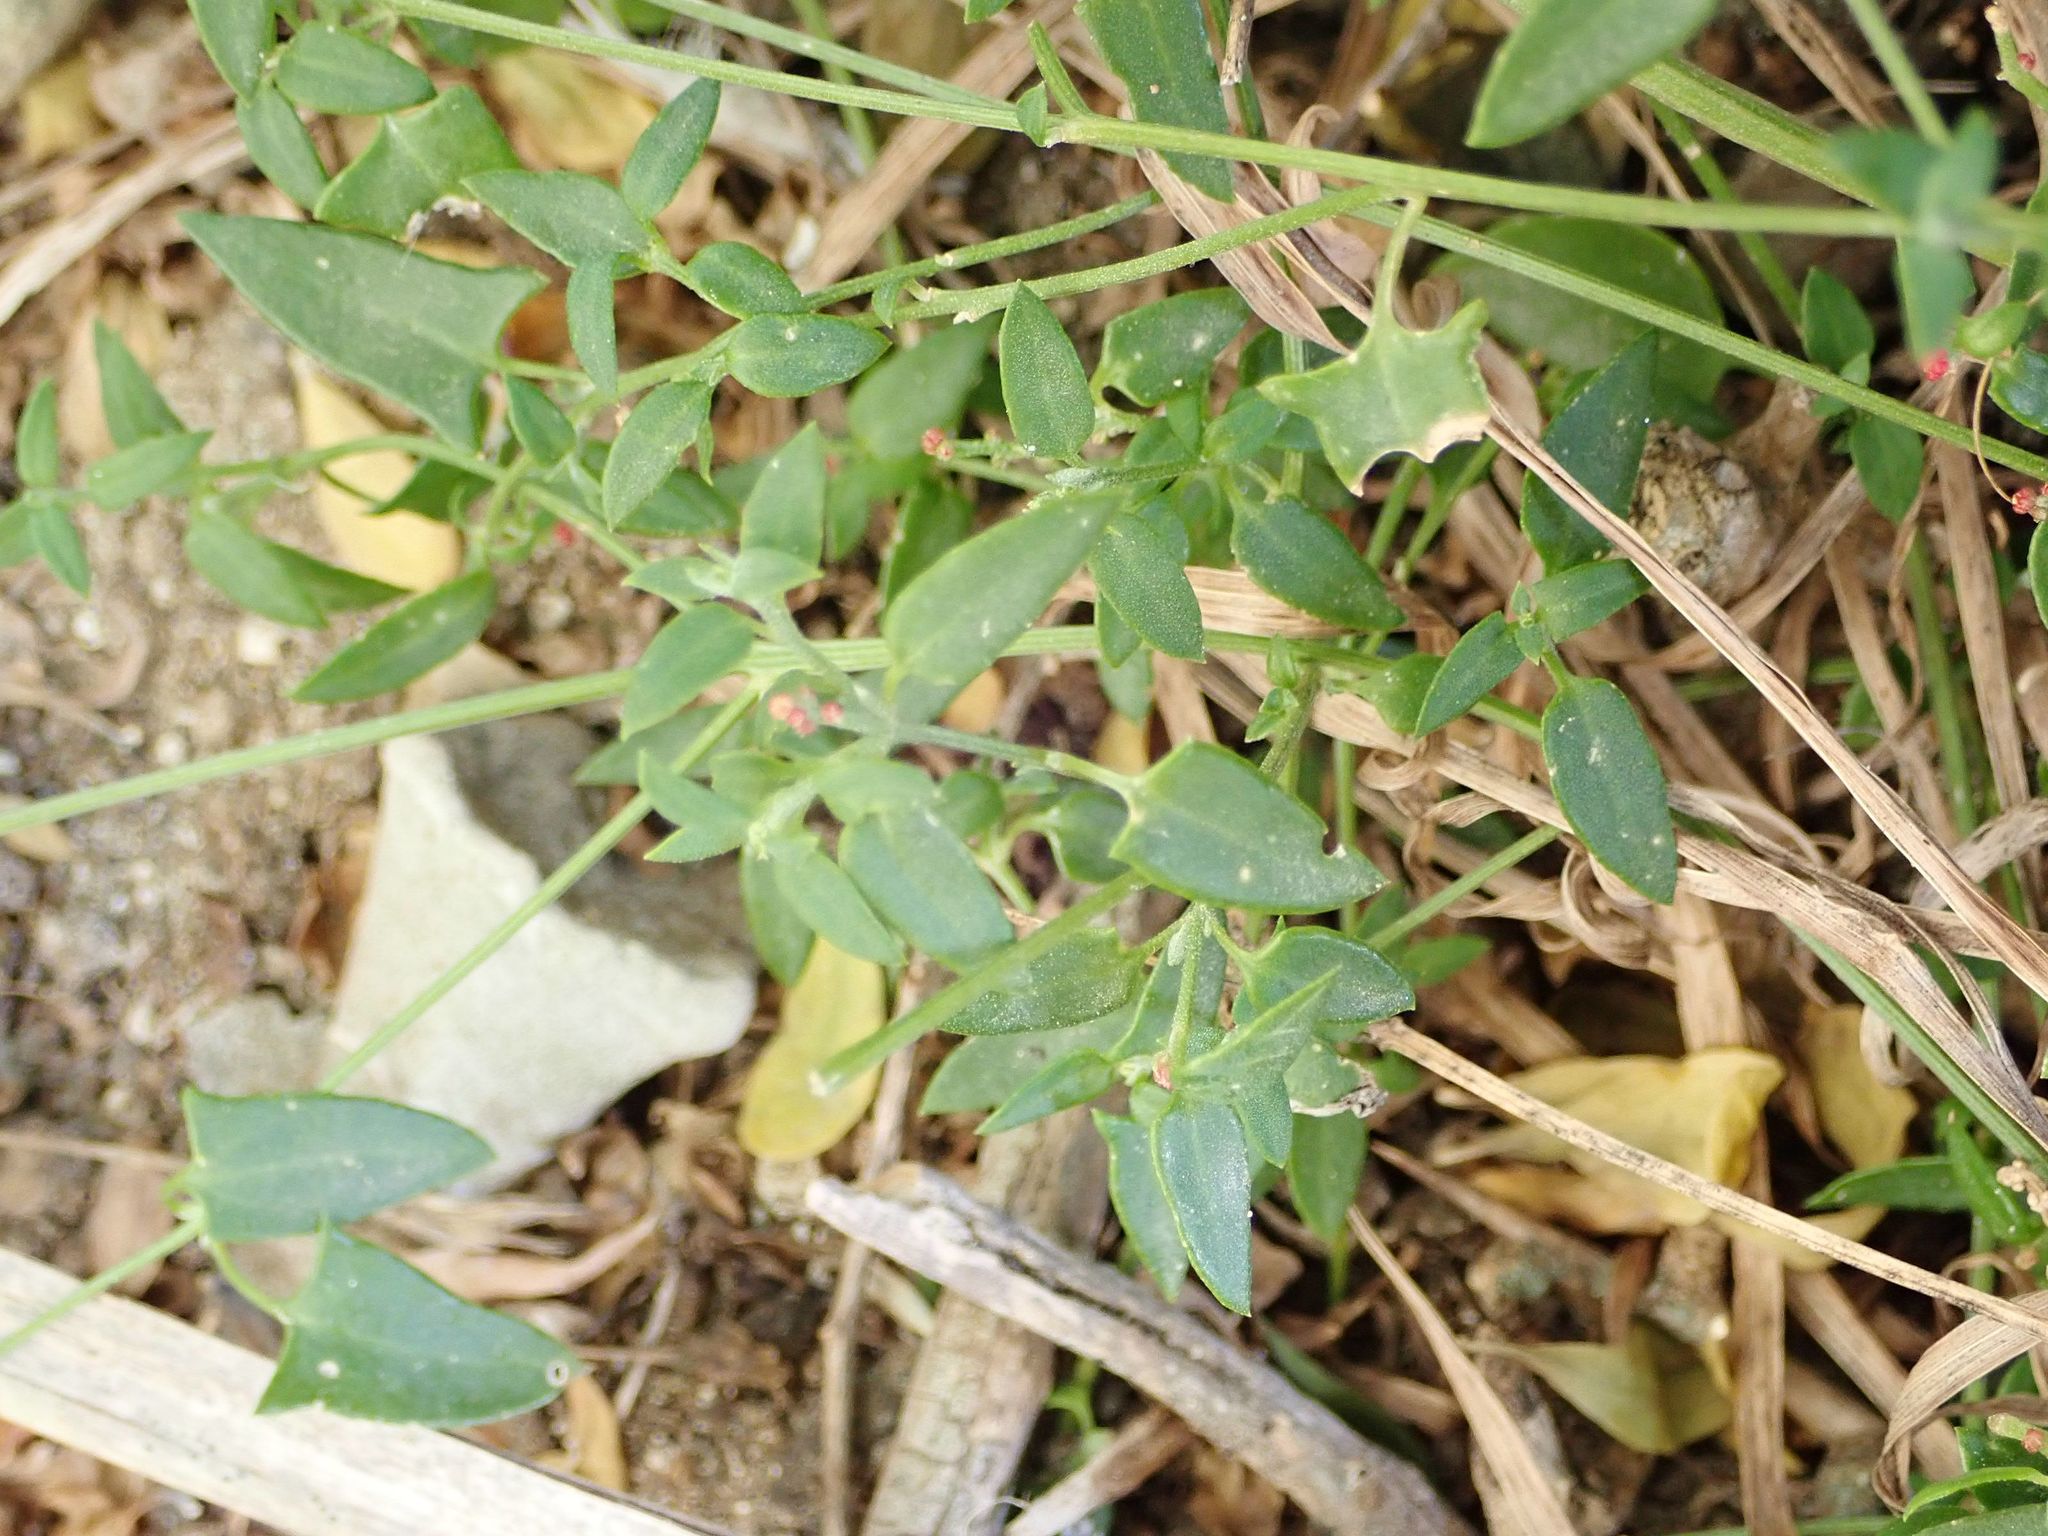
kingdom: Plantae
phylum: Tracheophyta
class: Magnoliopsida
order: Caryophyllales
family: Amaranthaceae
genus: Chenopodium
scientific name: Chenopodium nutans
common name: Climbing-saltbush
